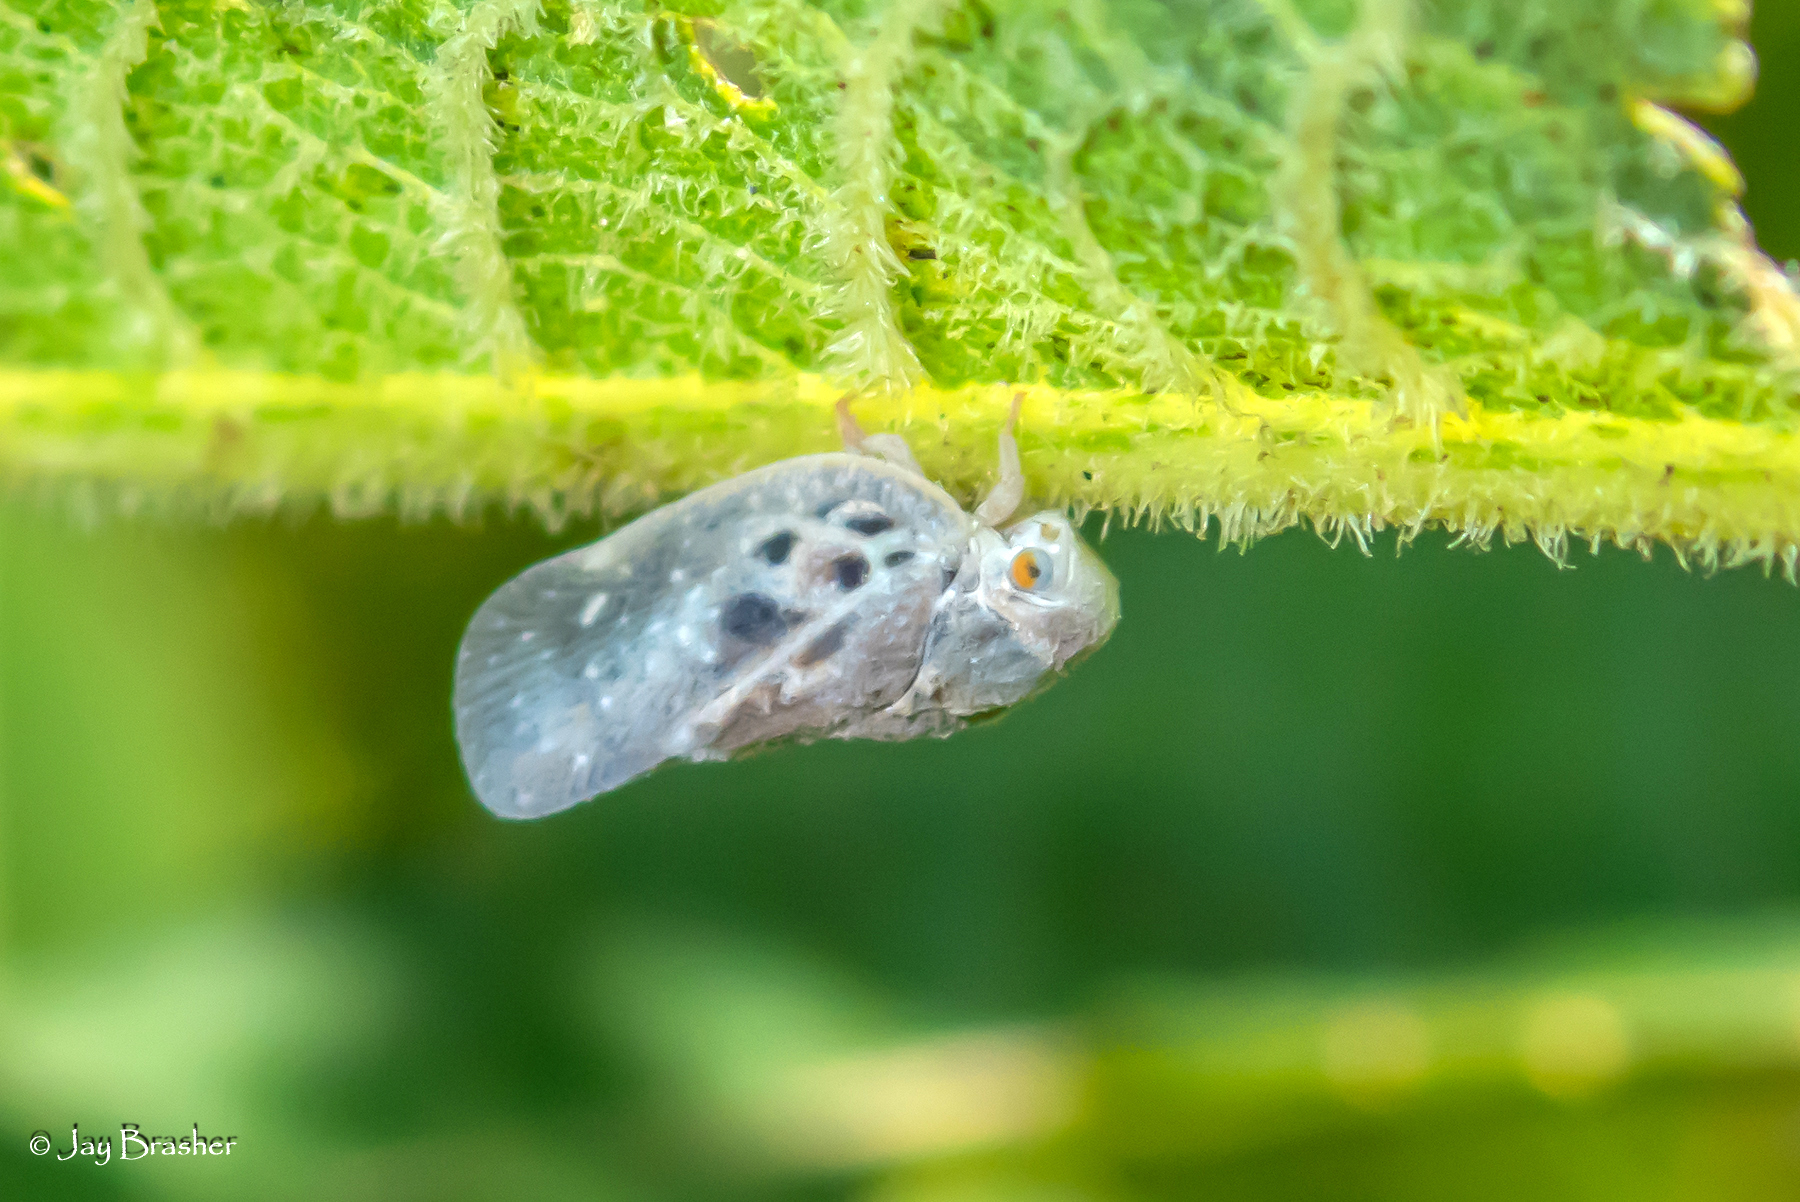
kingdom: Animalia
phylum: Arthropoda
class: Insecta
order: Hemiptera
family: Flatidae
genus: Metcalfa
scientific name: Metcalfa pruinosa
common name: Citrus flatid planthopper
